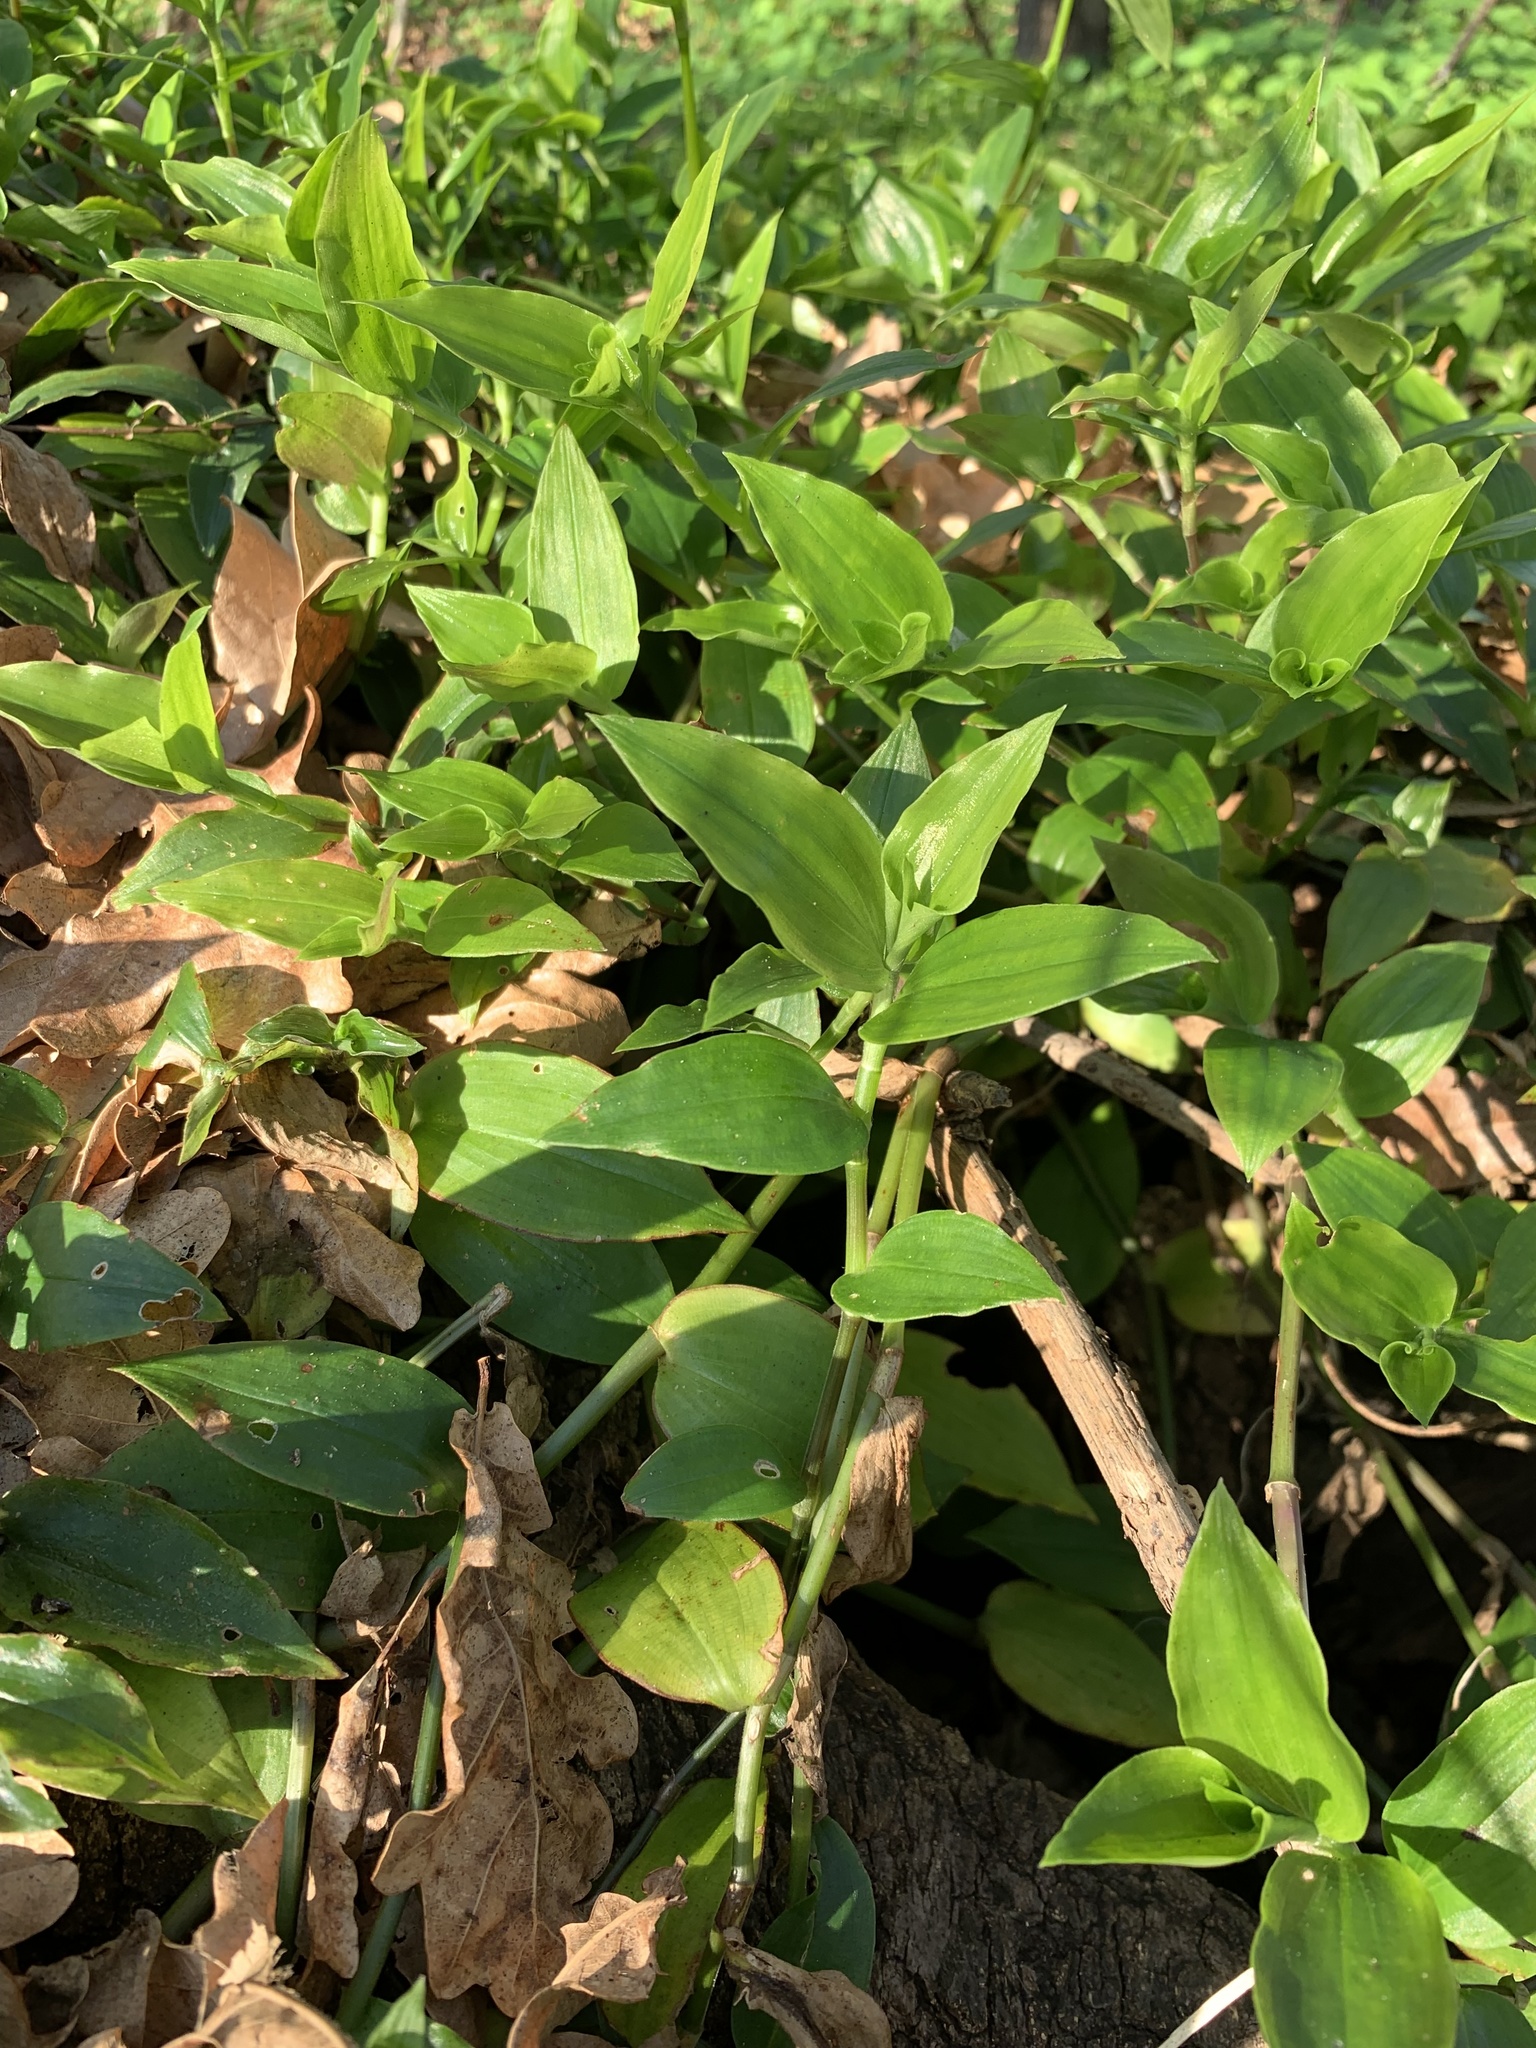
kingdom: Plantae
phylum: Tracheophyta
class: Liliopsida
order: Commelinales
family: Commelinaceae
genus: Tradescantia
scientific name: Tradescantia fluminensis
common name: Wandering-jew
